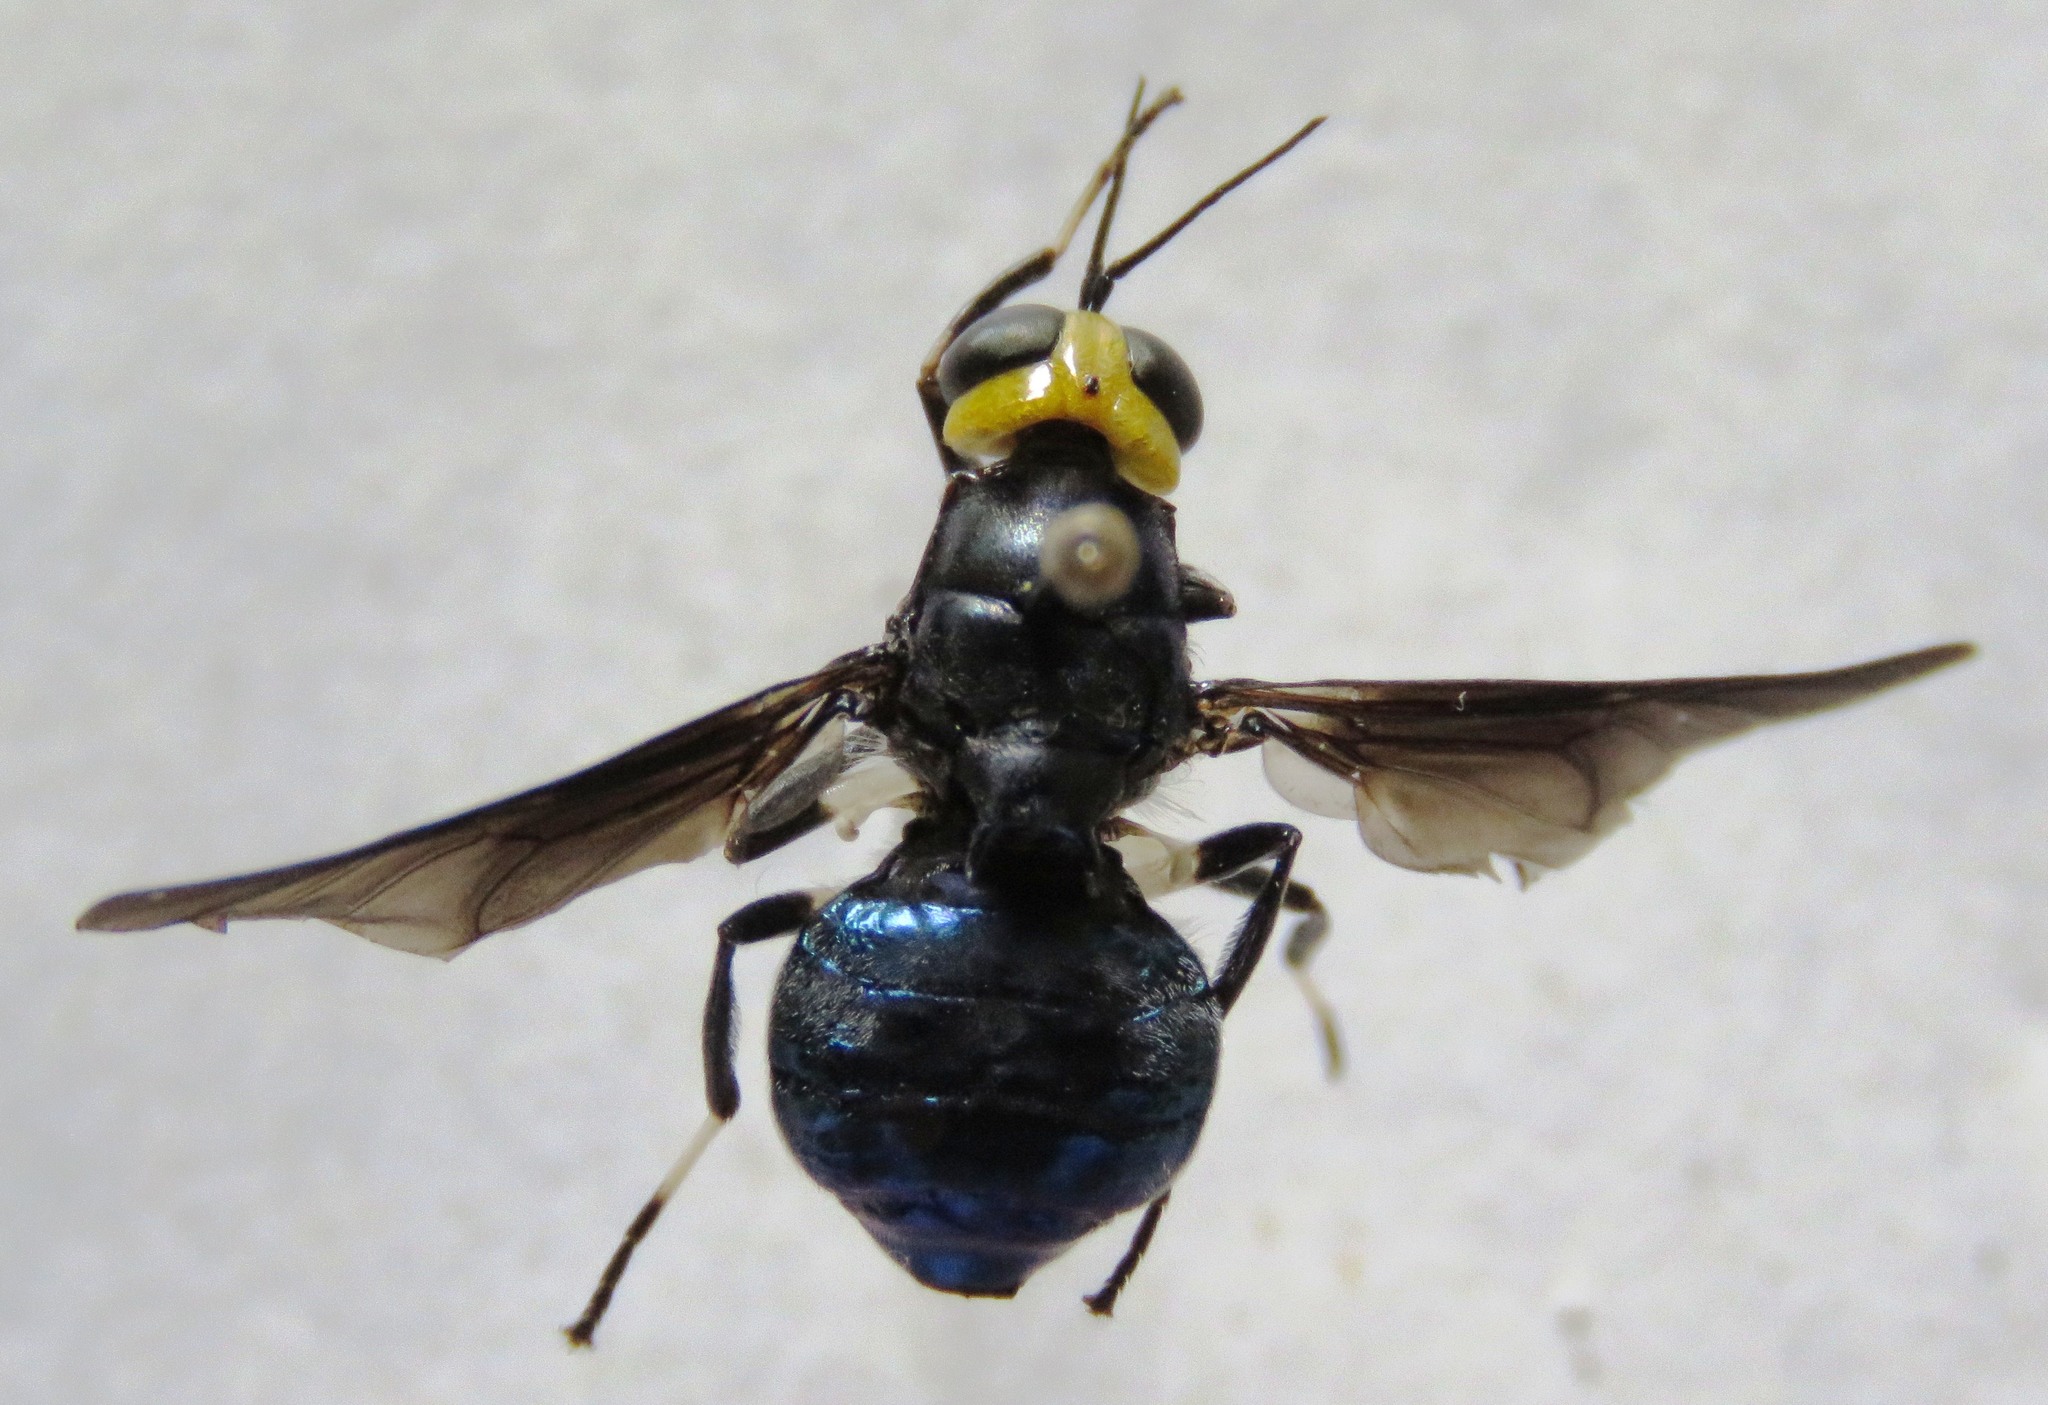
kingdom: Animalia
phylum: Arthropoda
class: Insecta
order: Diptera
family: Stratiomyidae
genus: Cyphomyia
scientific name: Cyphomyia varipes
